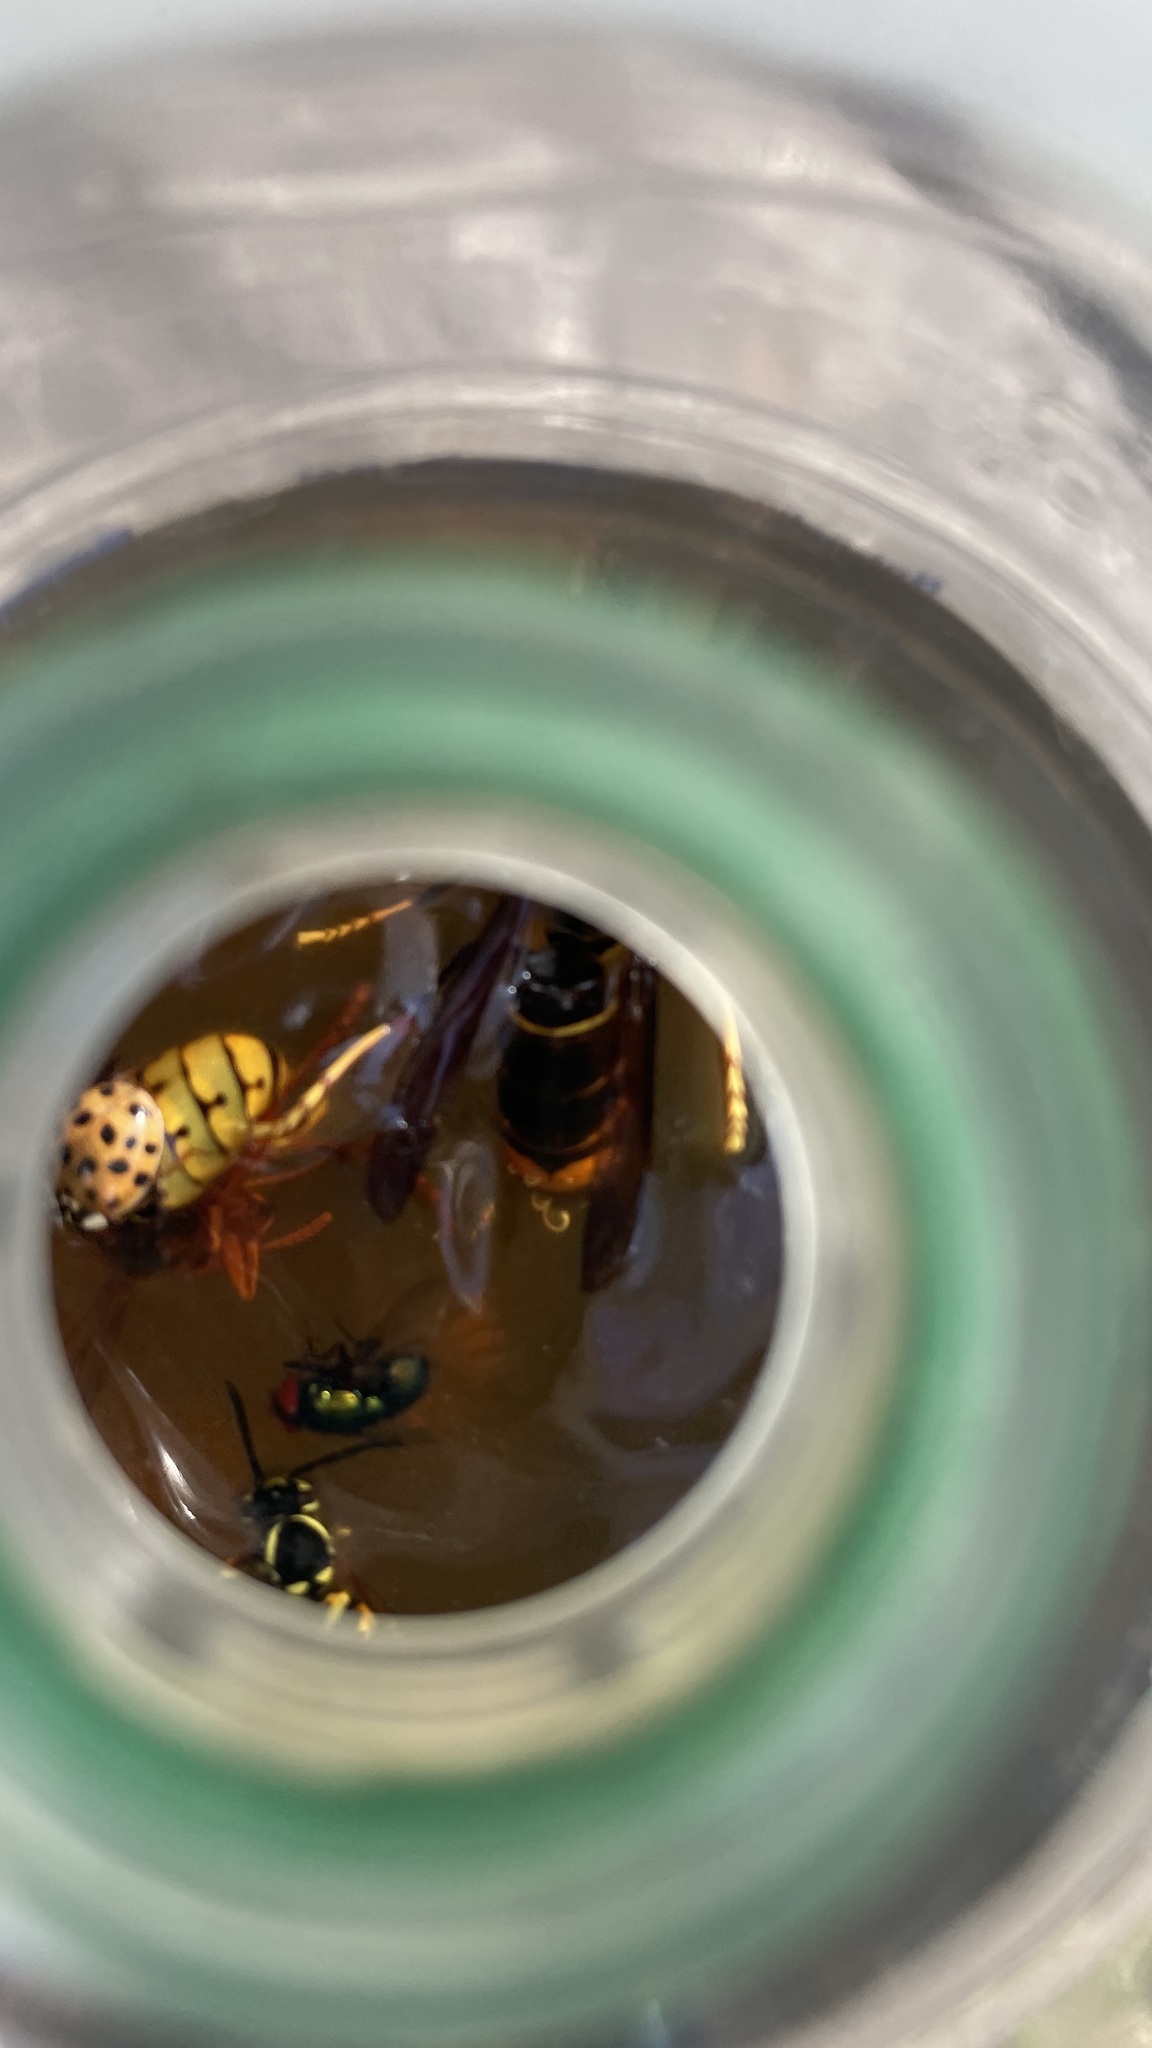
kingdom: Animalia
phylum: Arthropoda
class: Insecta
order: Hymenoptera
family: Vespidae
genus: Vespa
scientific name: Vespa velutina
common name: Asian hornet
